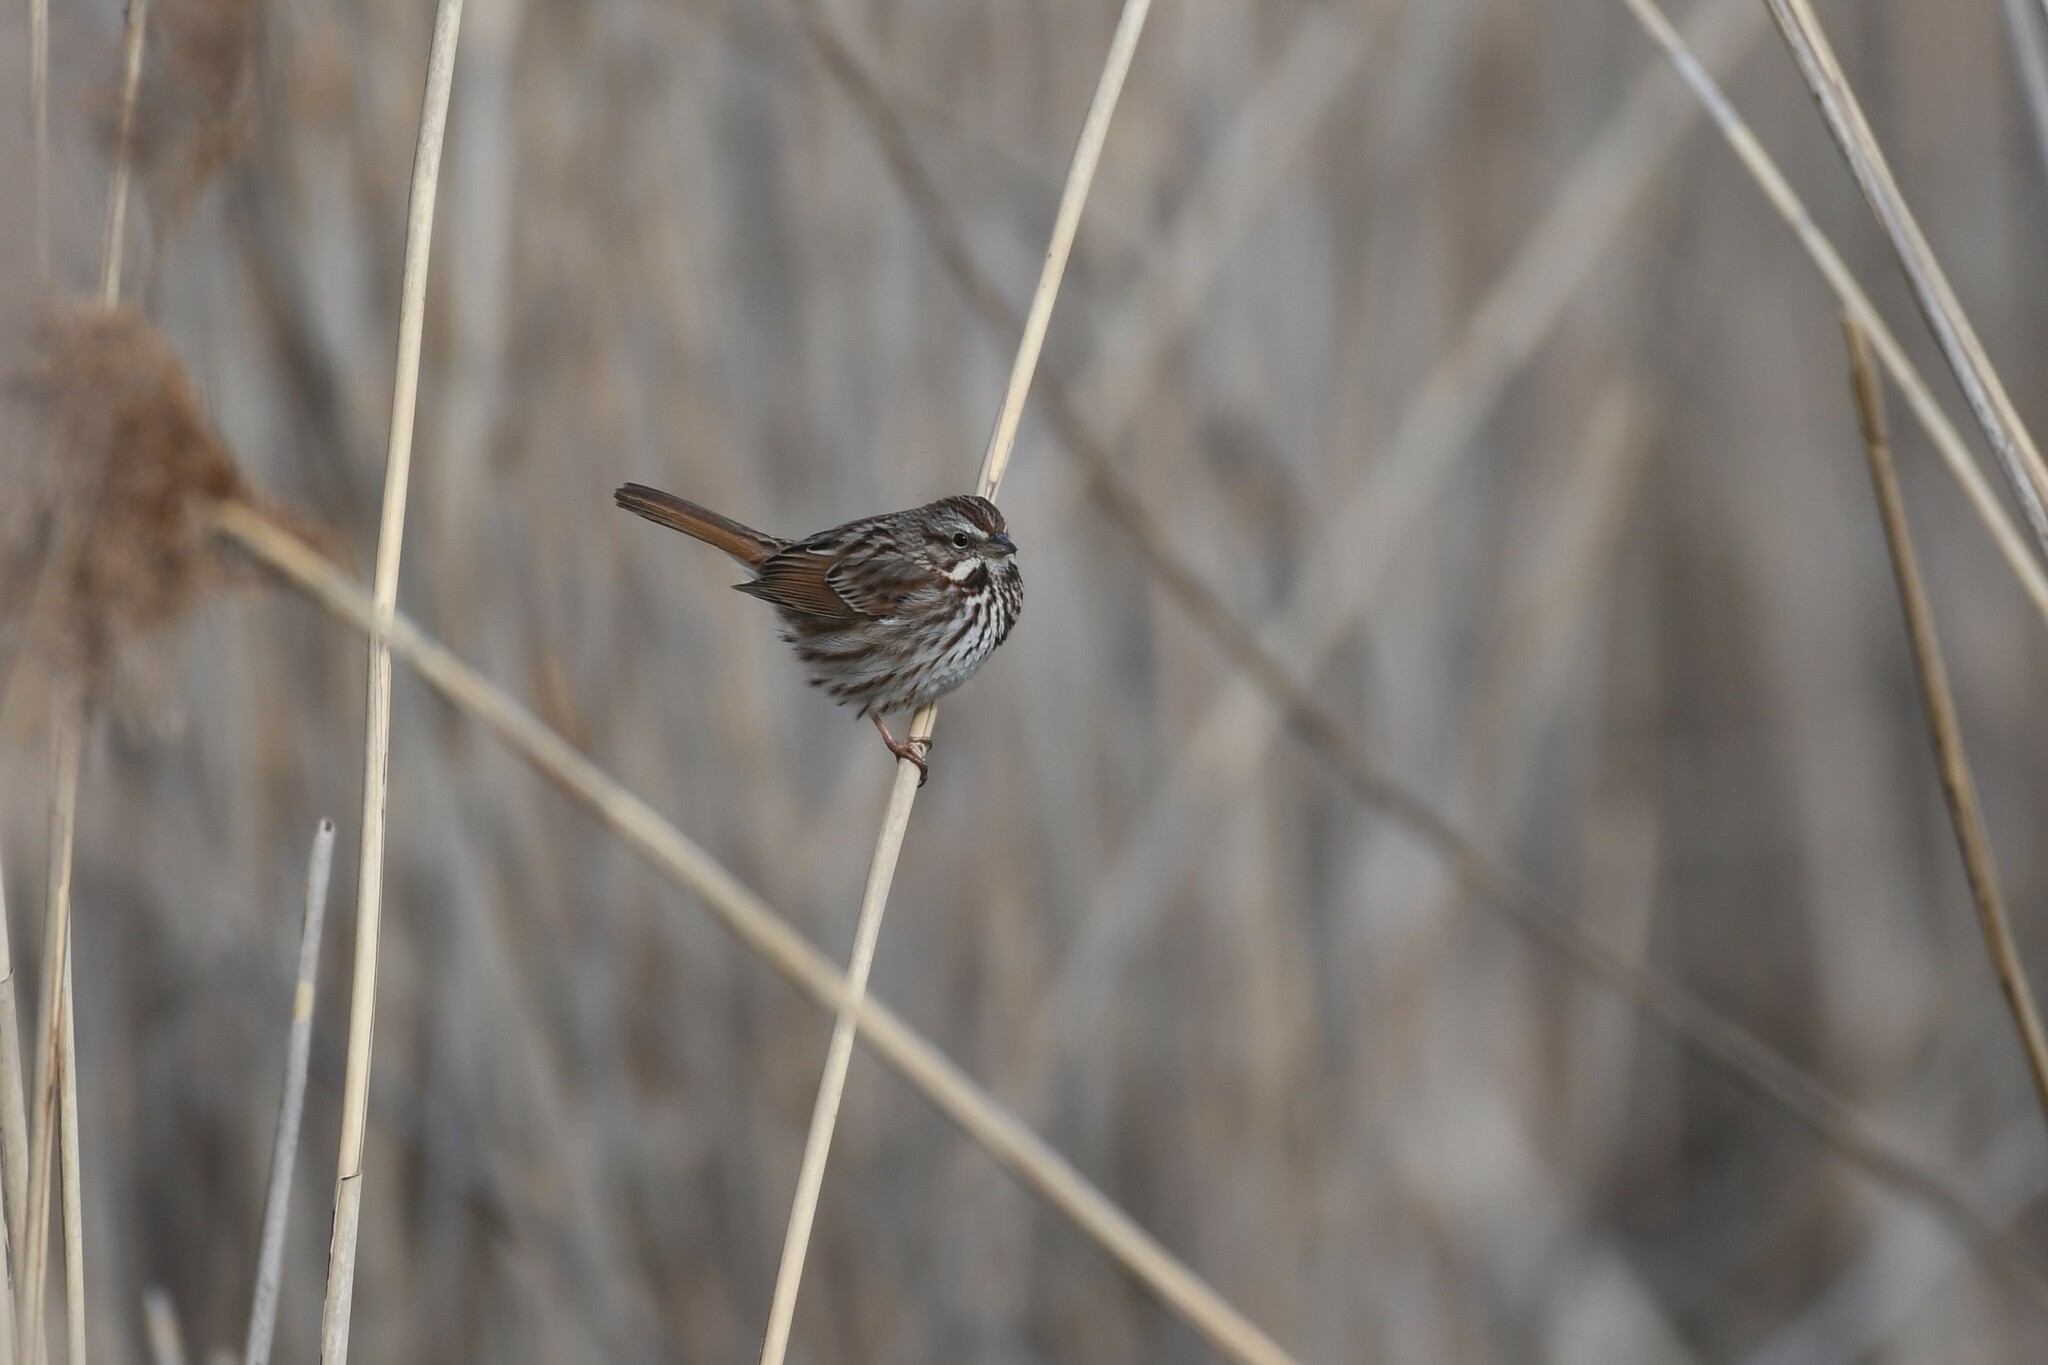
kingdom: Animalia
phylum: Chordata
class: Aves
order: Passeriformes
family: Passerellidae
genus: Melospiza
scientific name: Melospiza melodia
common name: Song sparrow
